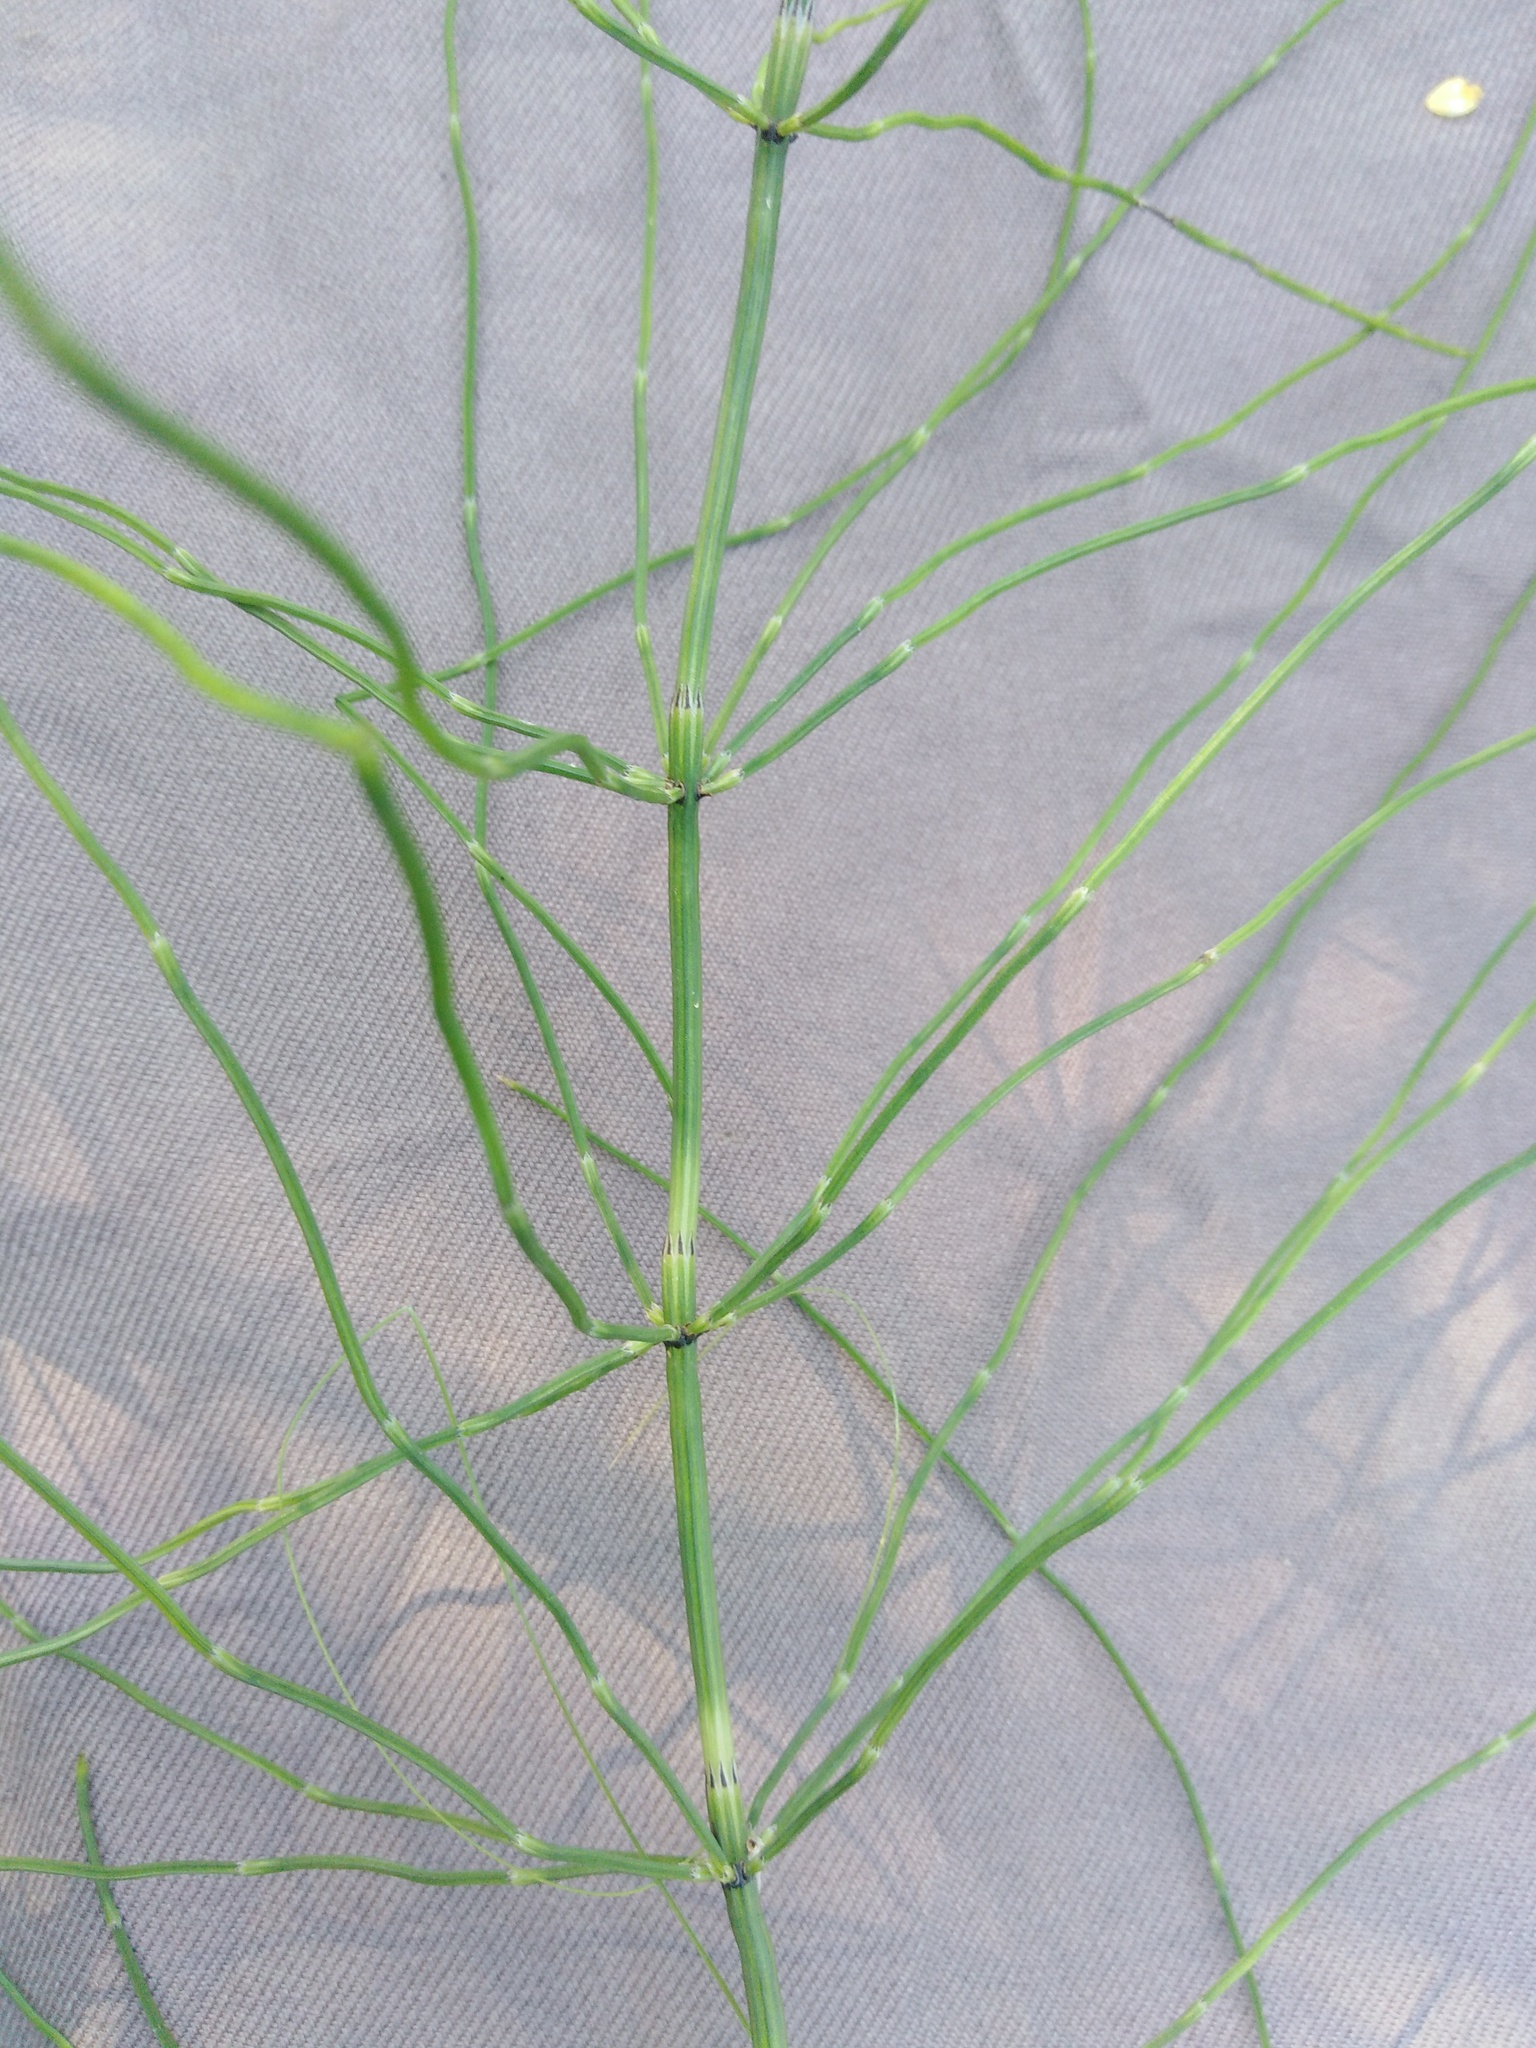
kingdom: Plantae
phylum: Tracheophyta
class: Polypodiopsida
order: Equisetales
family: Equisetaceae
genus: Equisetum
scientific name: Equisetum palustre
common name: Marsh horsetail
